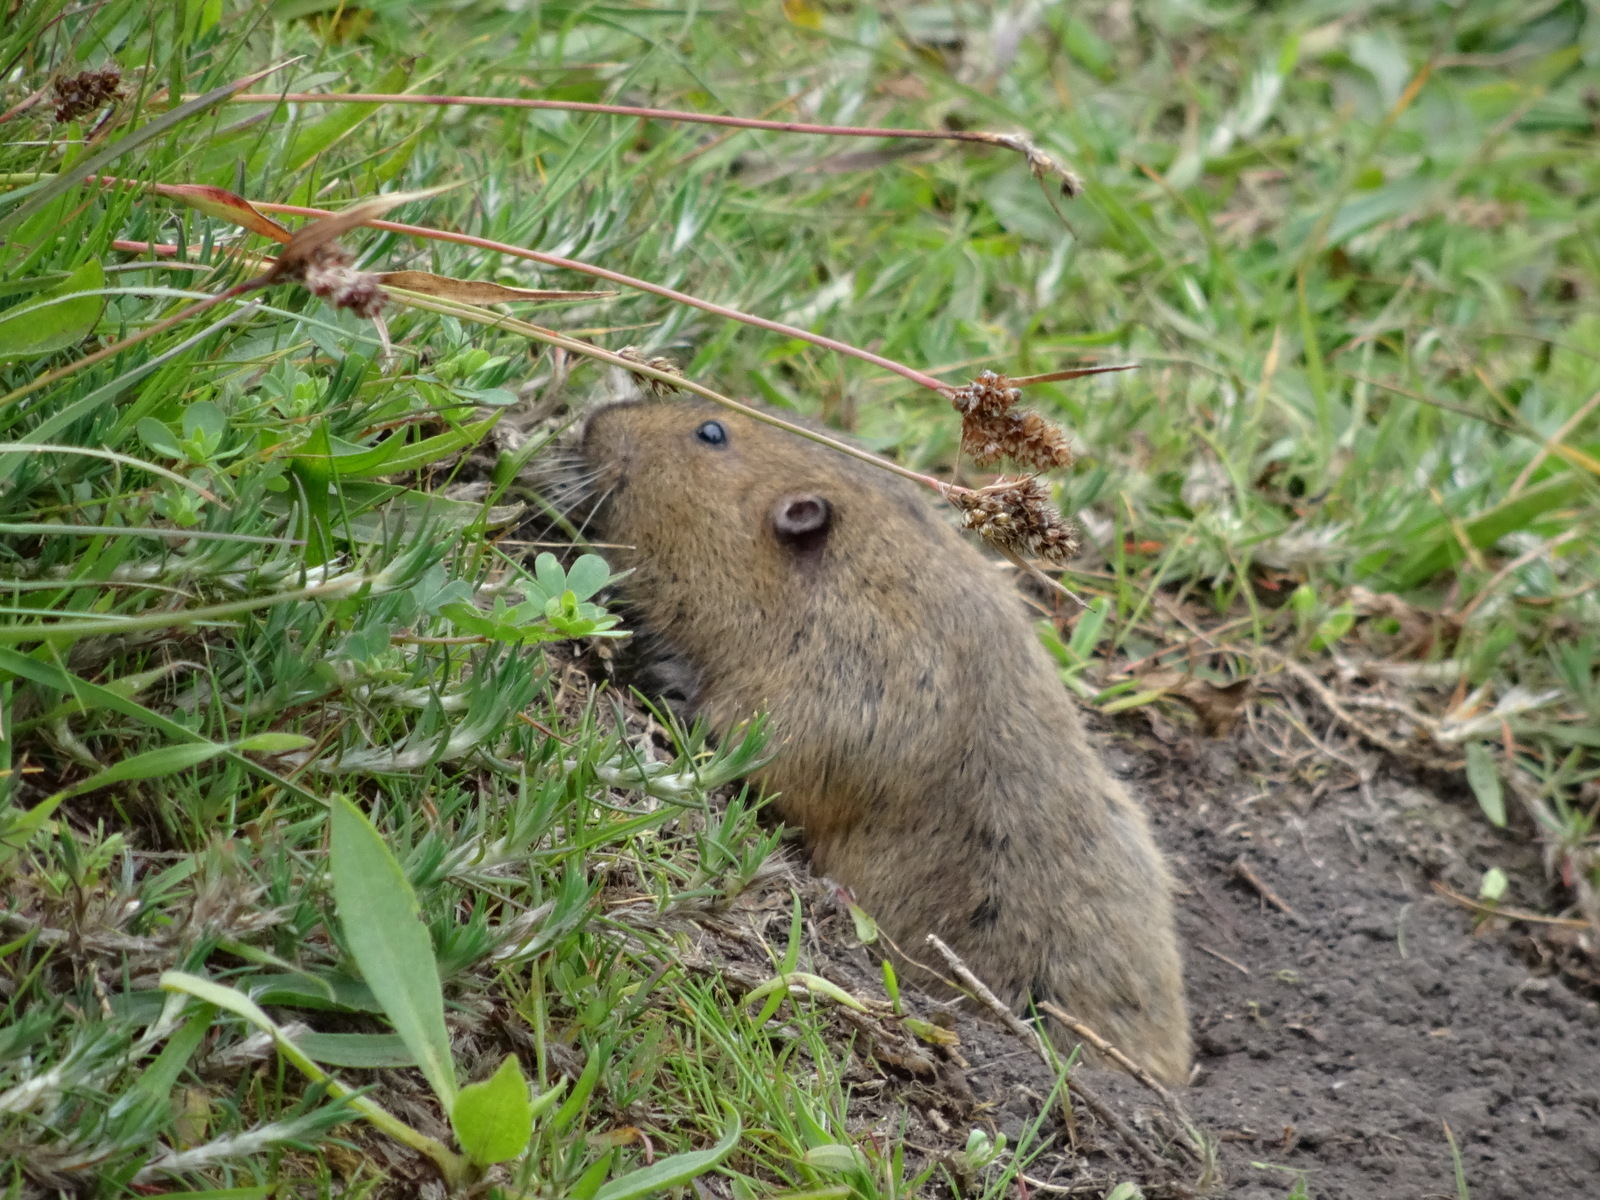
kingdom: Animalia
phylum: Chordata
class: Mammalia
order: Rodentia
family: Geomyidae
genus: Thomomys
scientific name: Thomomys bottae
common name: Botta's pocket gopher
